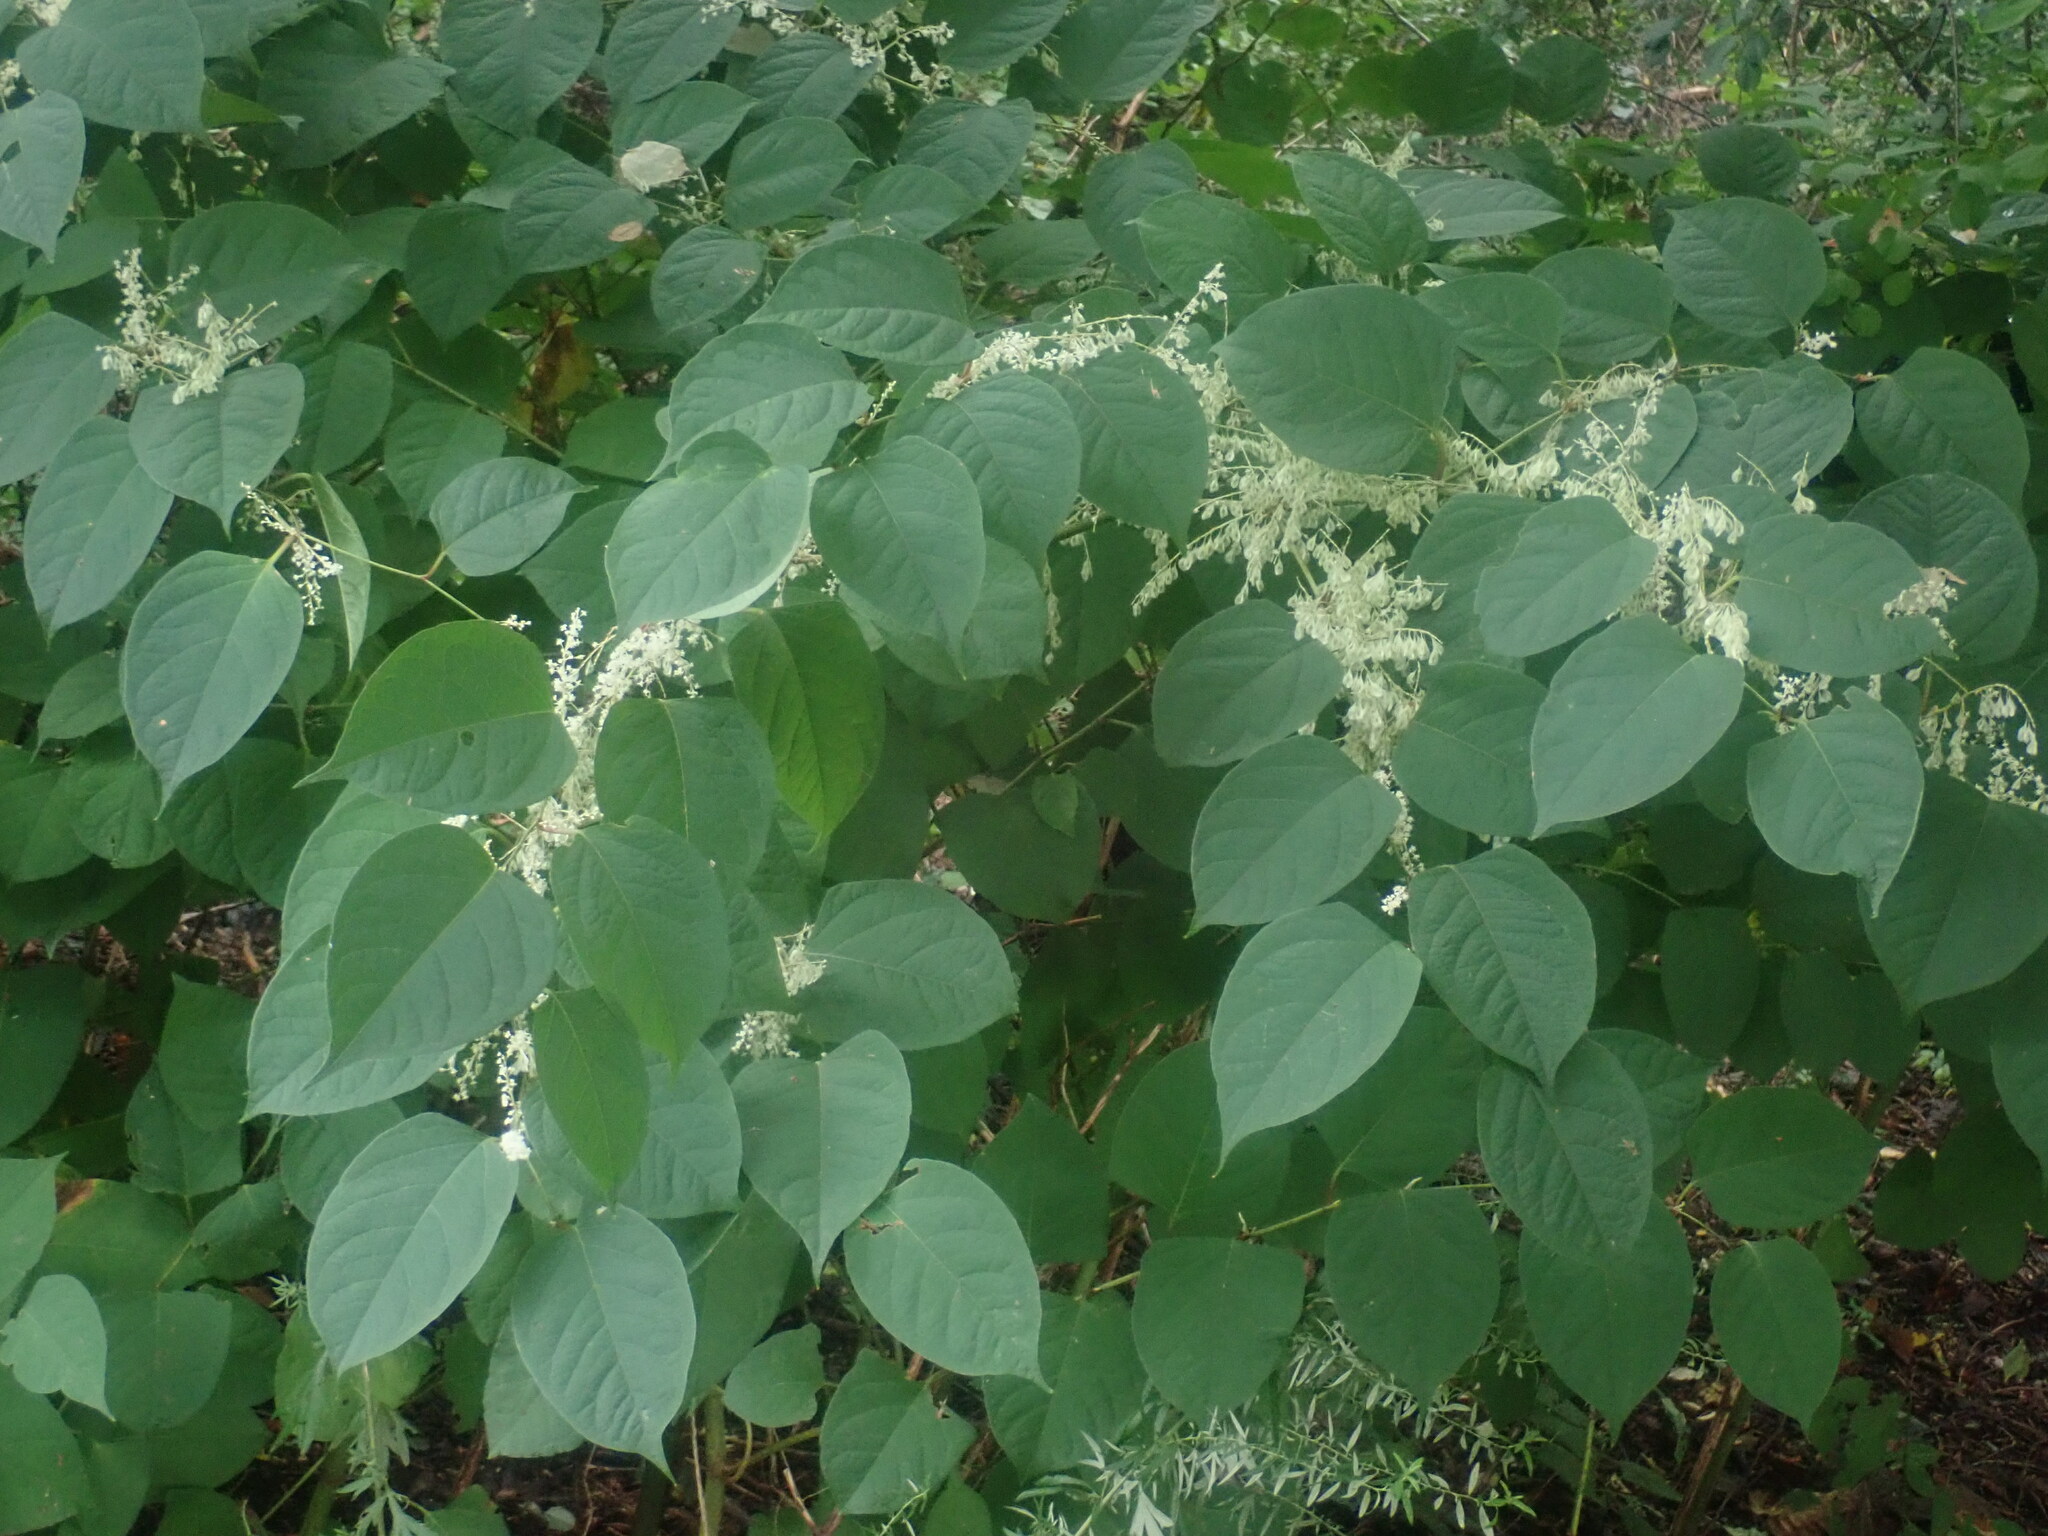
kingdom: Plantae
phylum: Tracheophyta
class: Magnoliopsida
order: Caryophyllales
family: Polygonaceae
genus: Reynoutria
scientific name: Reynoutria japonica
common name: Japanese knotweed
